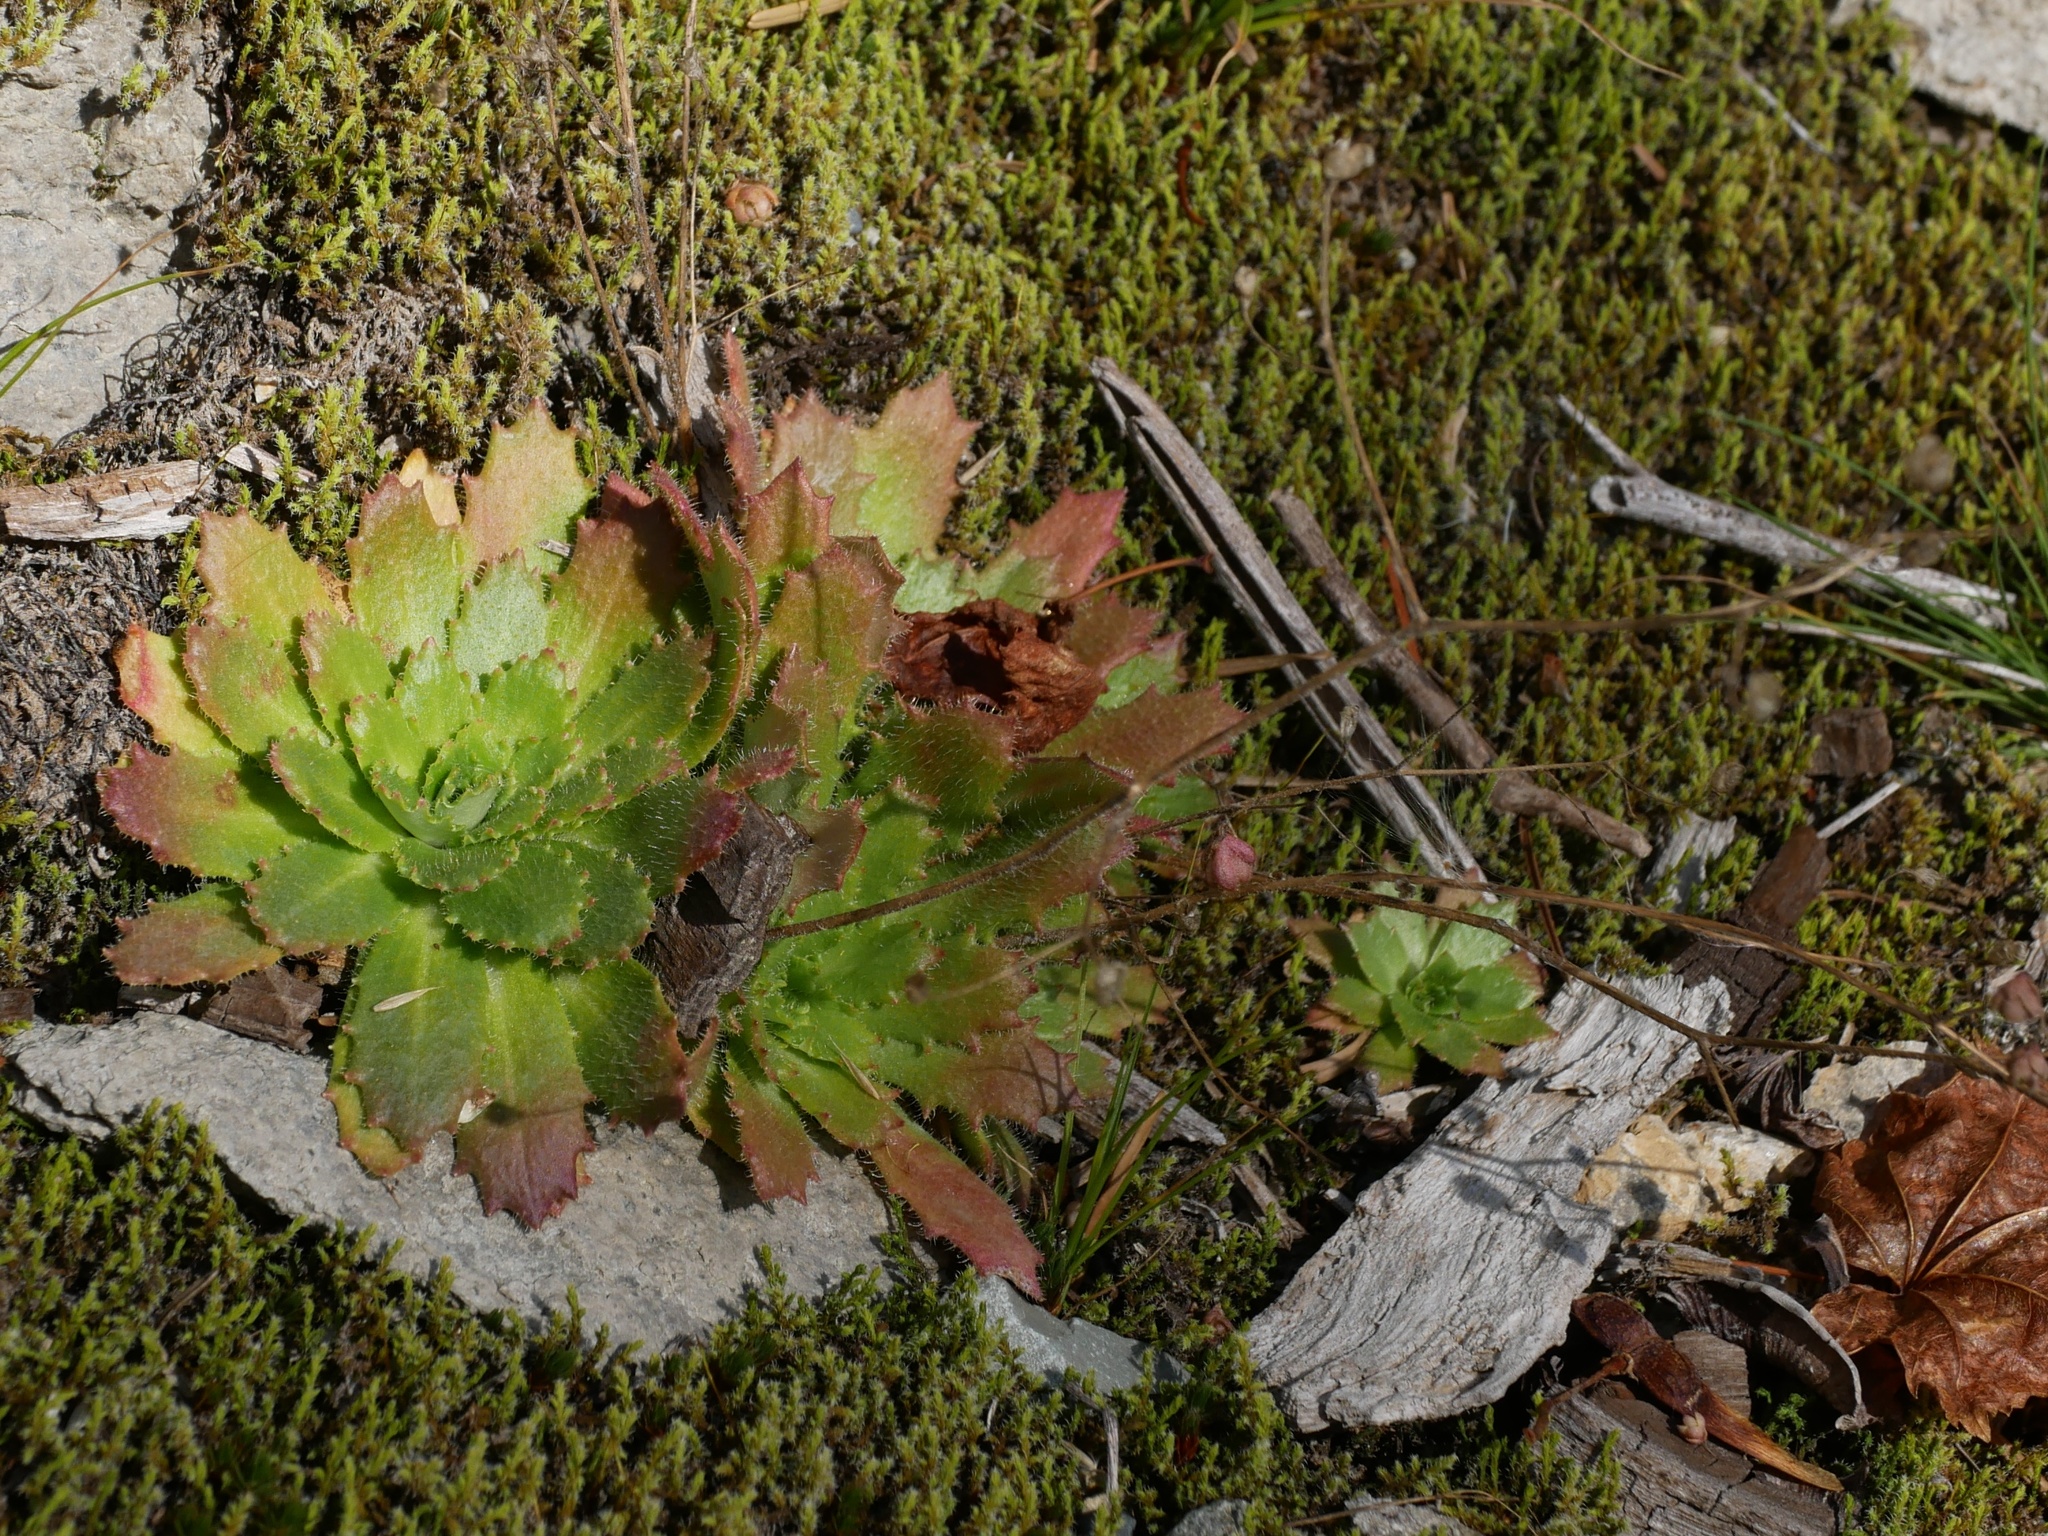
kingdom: Plantae
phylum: Tracheophyta
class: Magnoliopsida
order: Saxifragales
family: Saxifragaceae
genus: Micranthes
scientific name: Micranthes ferruginea
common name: Rusty saxifrage
